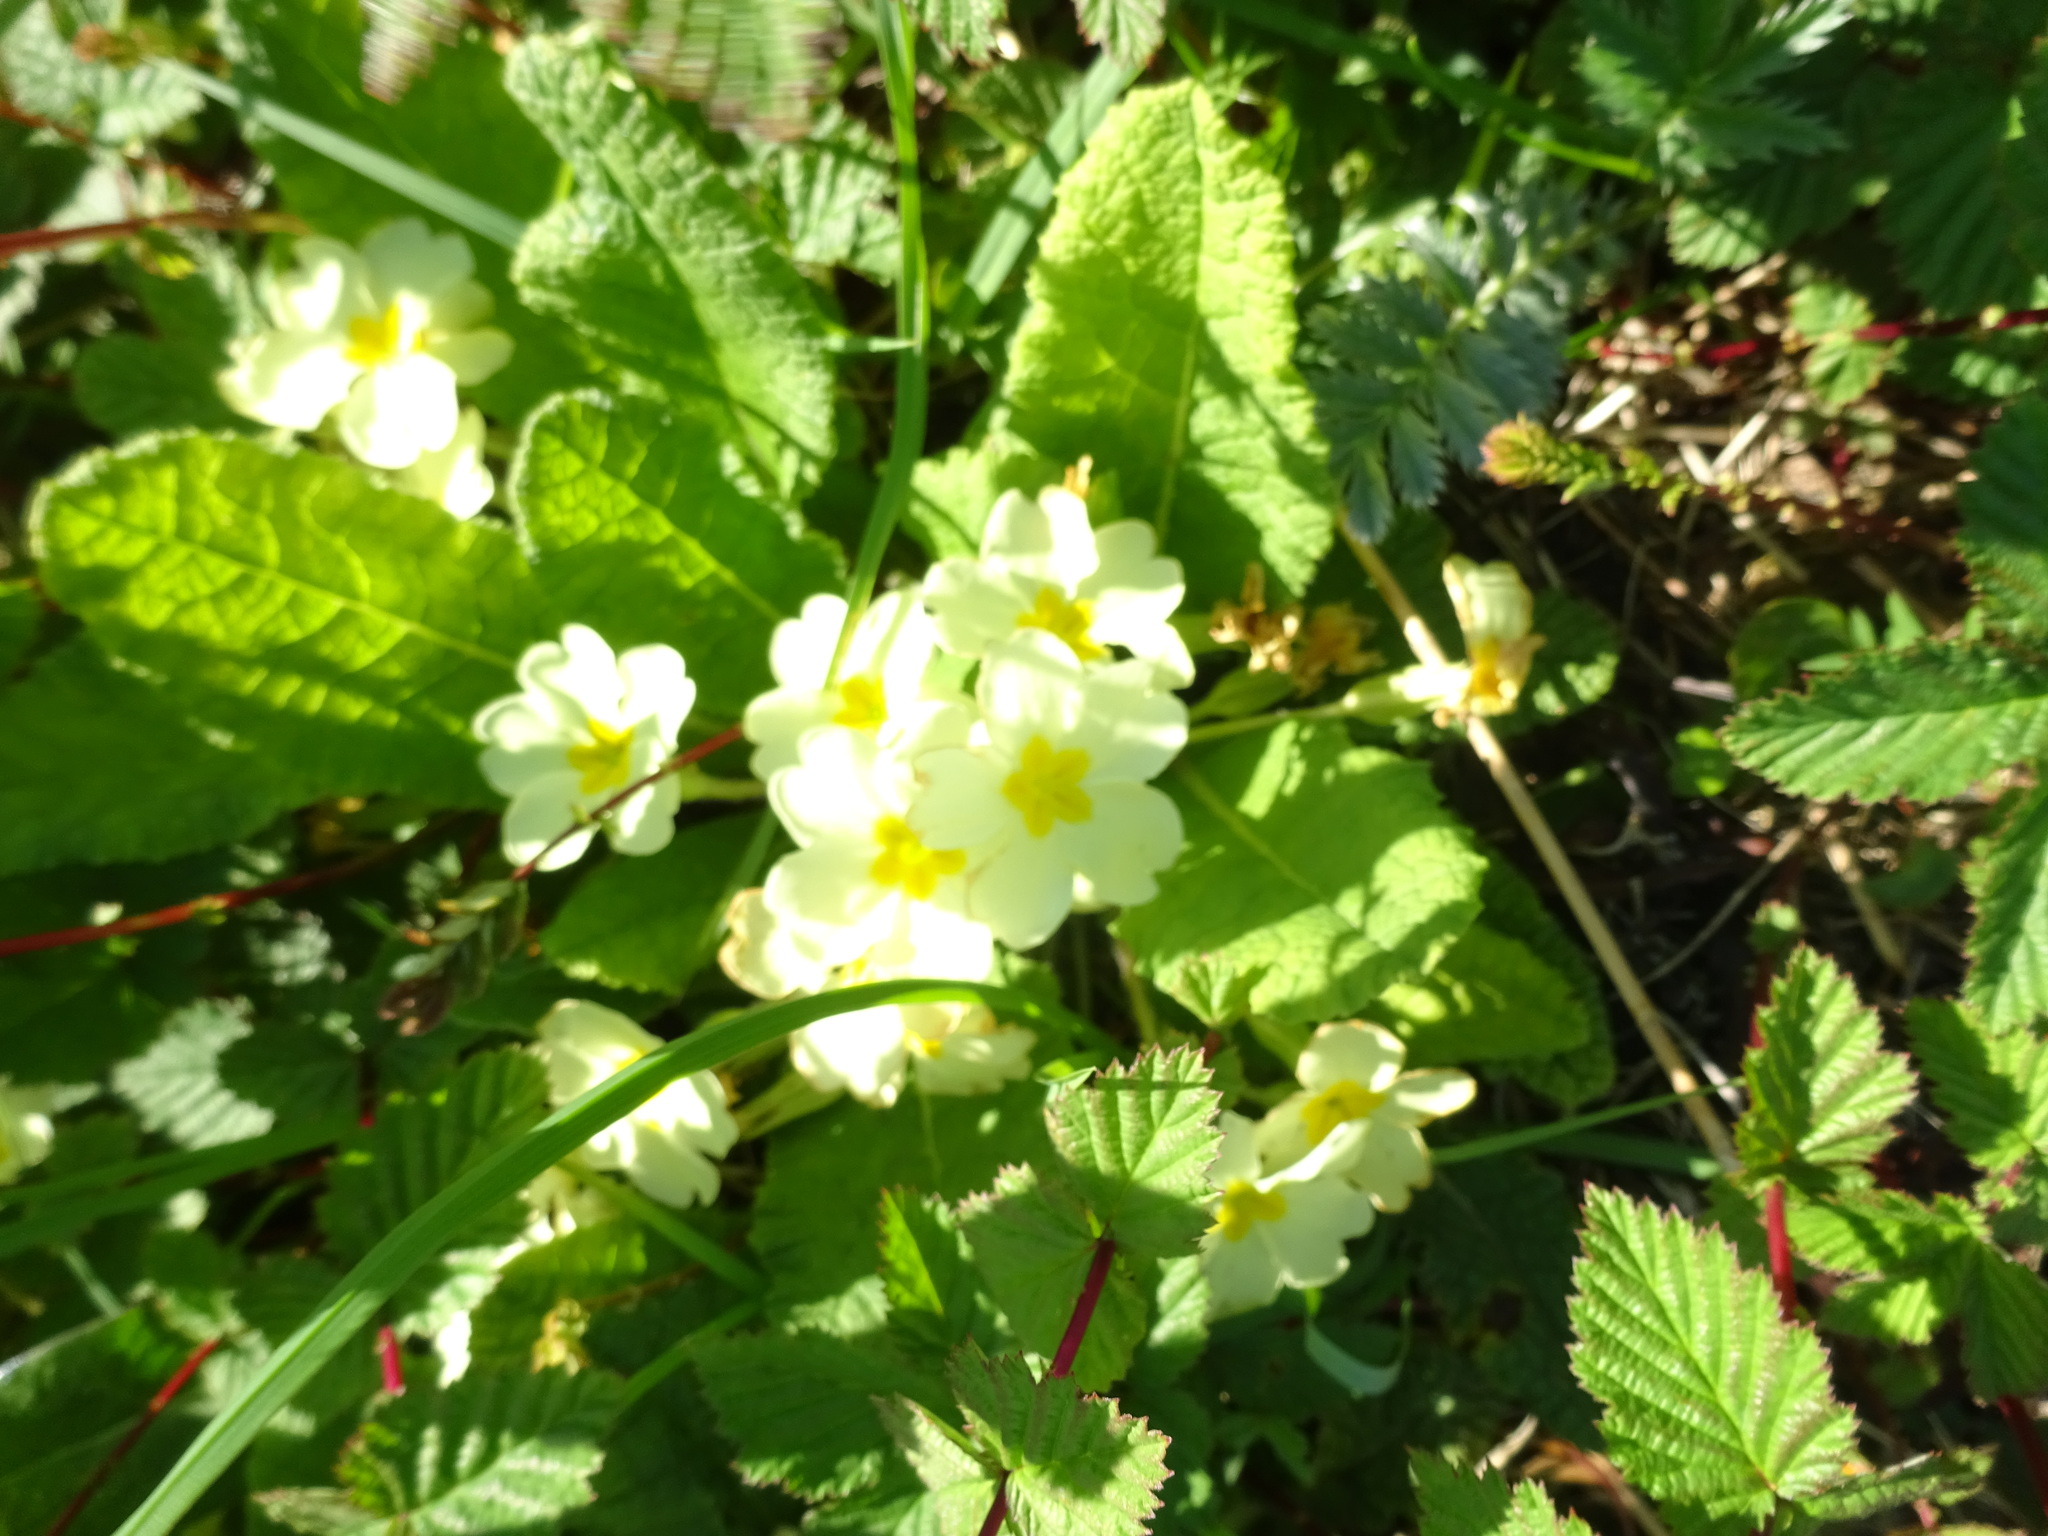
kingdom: Plantae
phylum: Tracheophyta
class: Magnoliopsida
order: Ericales
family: Primulaceae
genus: Primula
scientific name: Primula vulgaris
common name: Primrose
